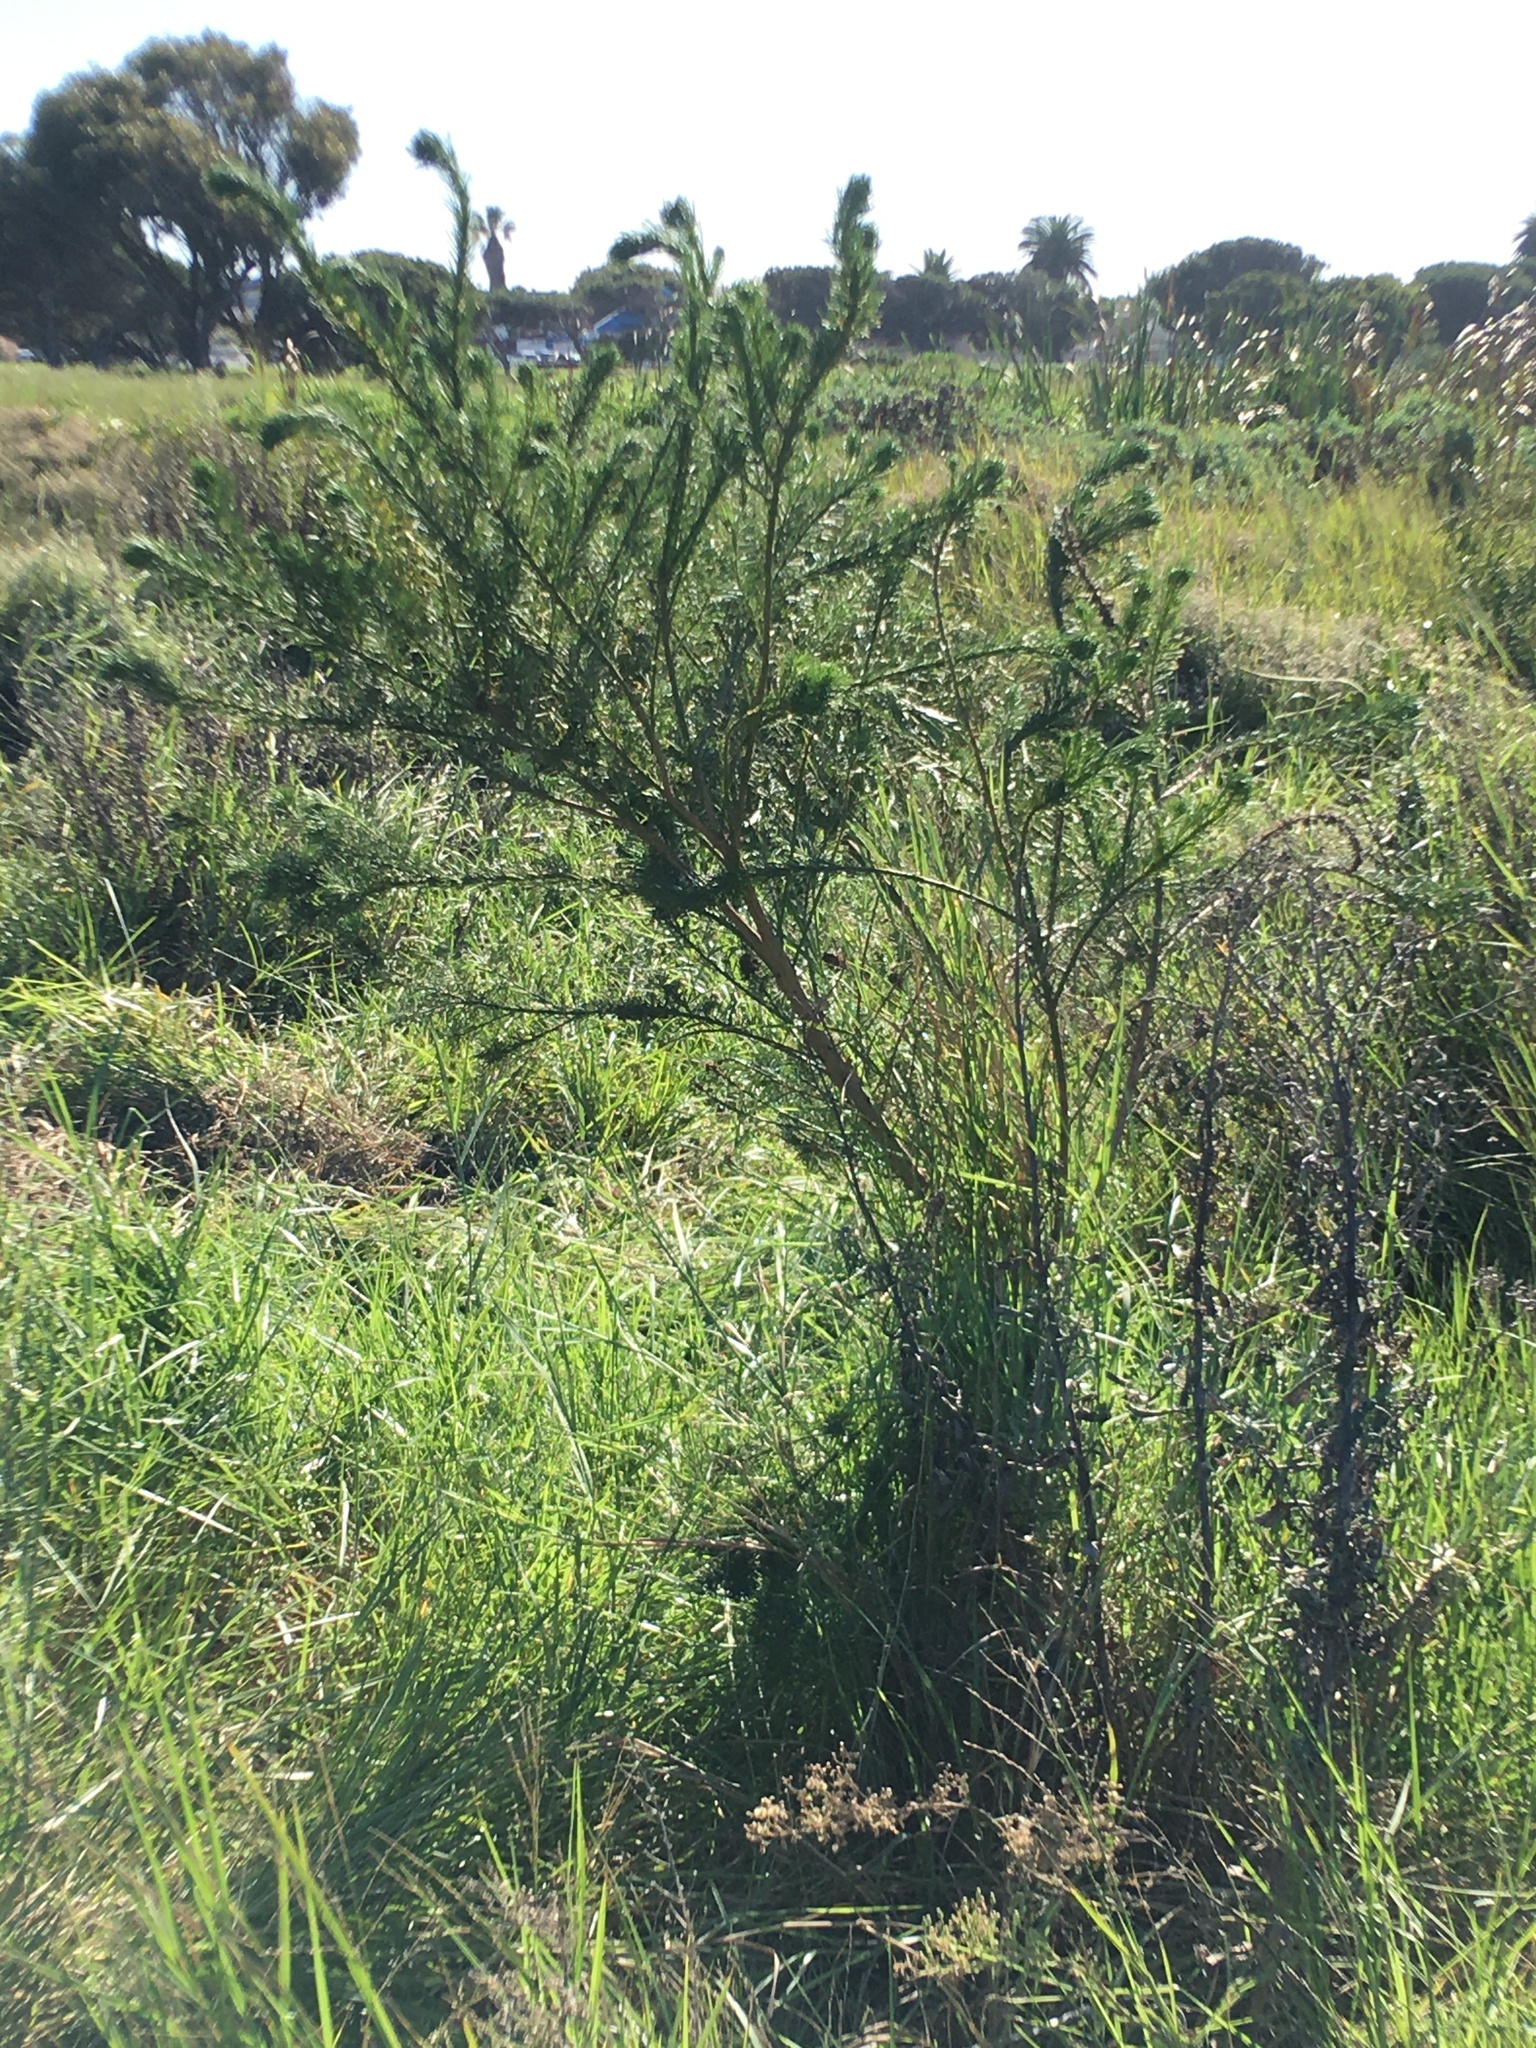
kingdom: Plantae
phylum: Tracheophyta
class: Magnoliopsida
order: Fabales
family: Fabaceae
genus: Psoralea
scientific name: Psoralea pinnata
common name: African scurfpea
